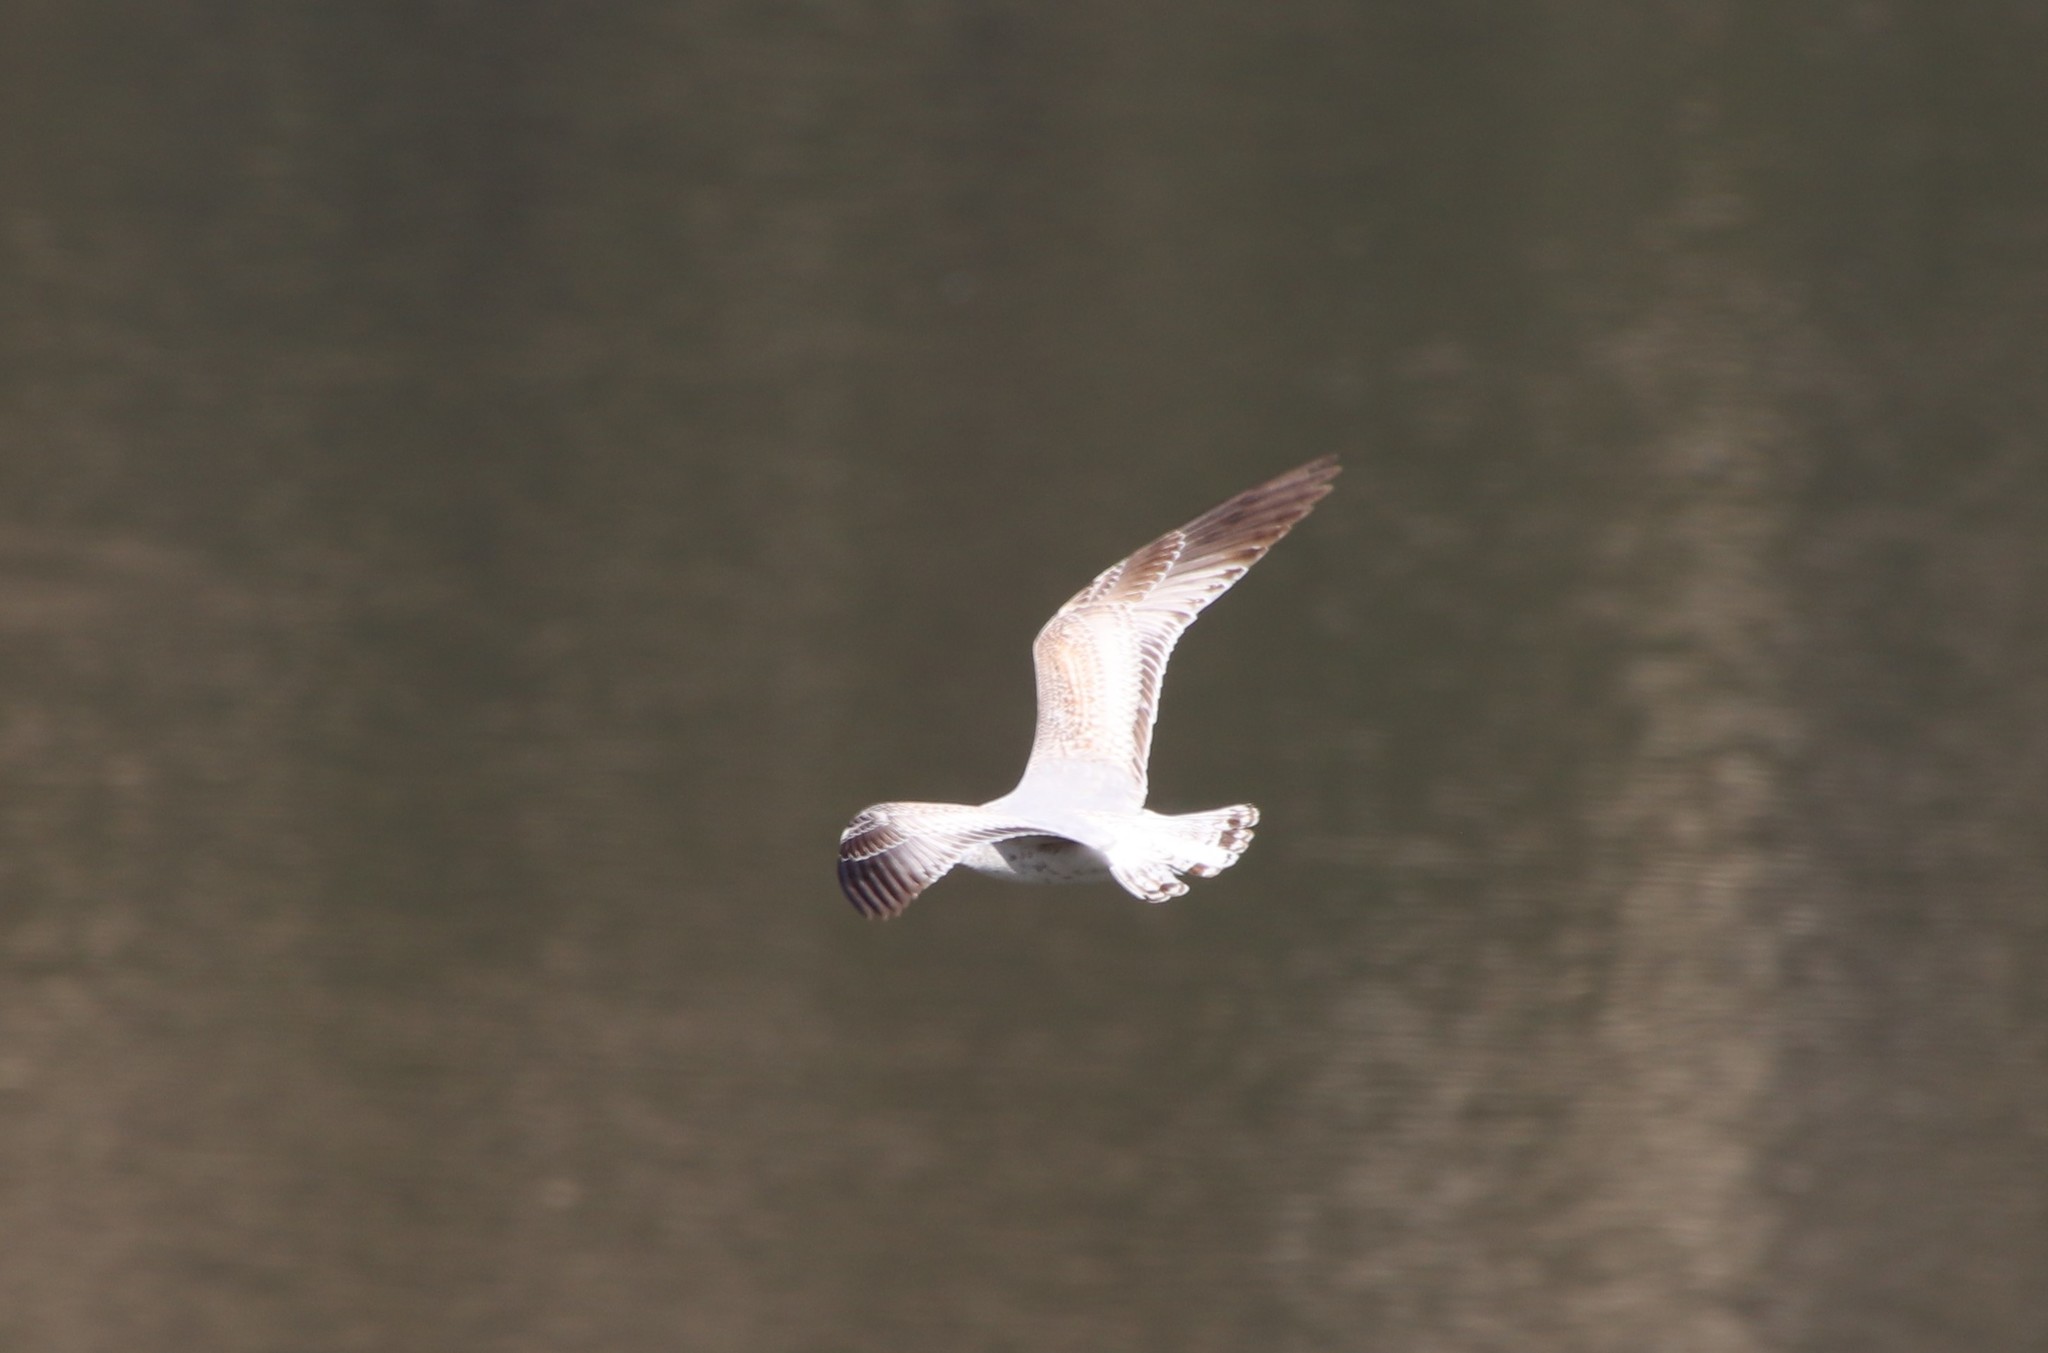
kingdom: Animalia
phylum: Chordata
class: Aves
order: Charadriiformes
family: Laridae
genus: Larus
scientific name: Larus delawarensis
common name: Ring-billed gull
